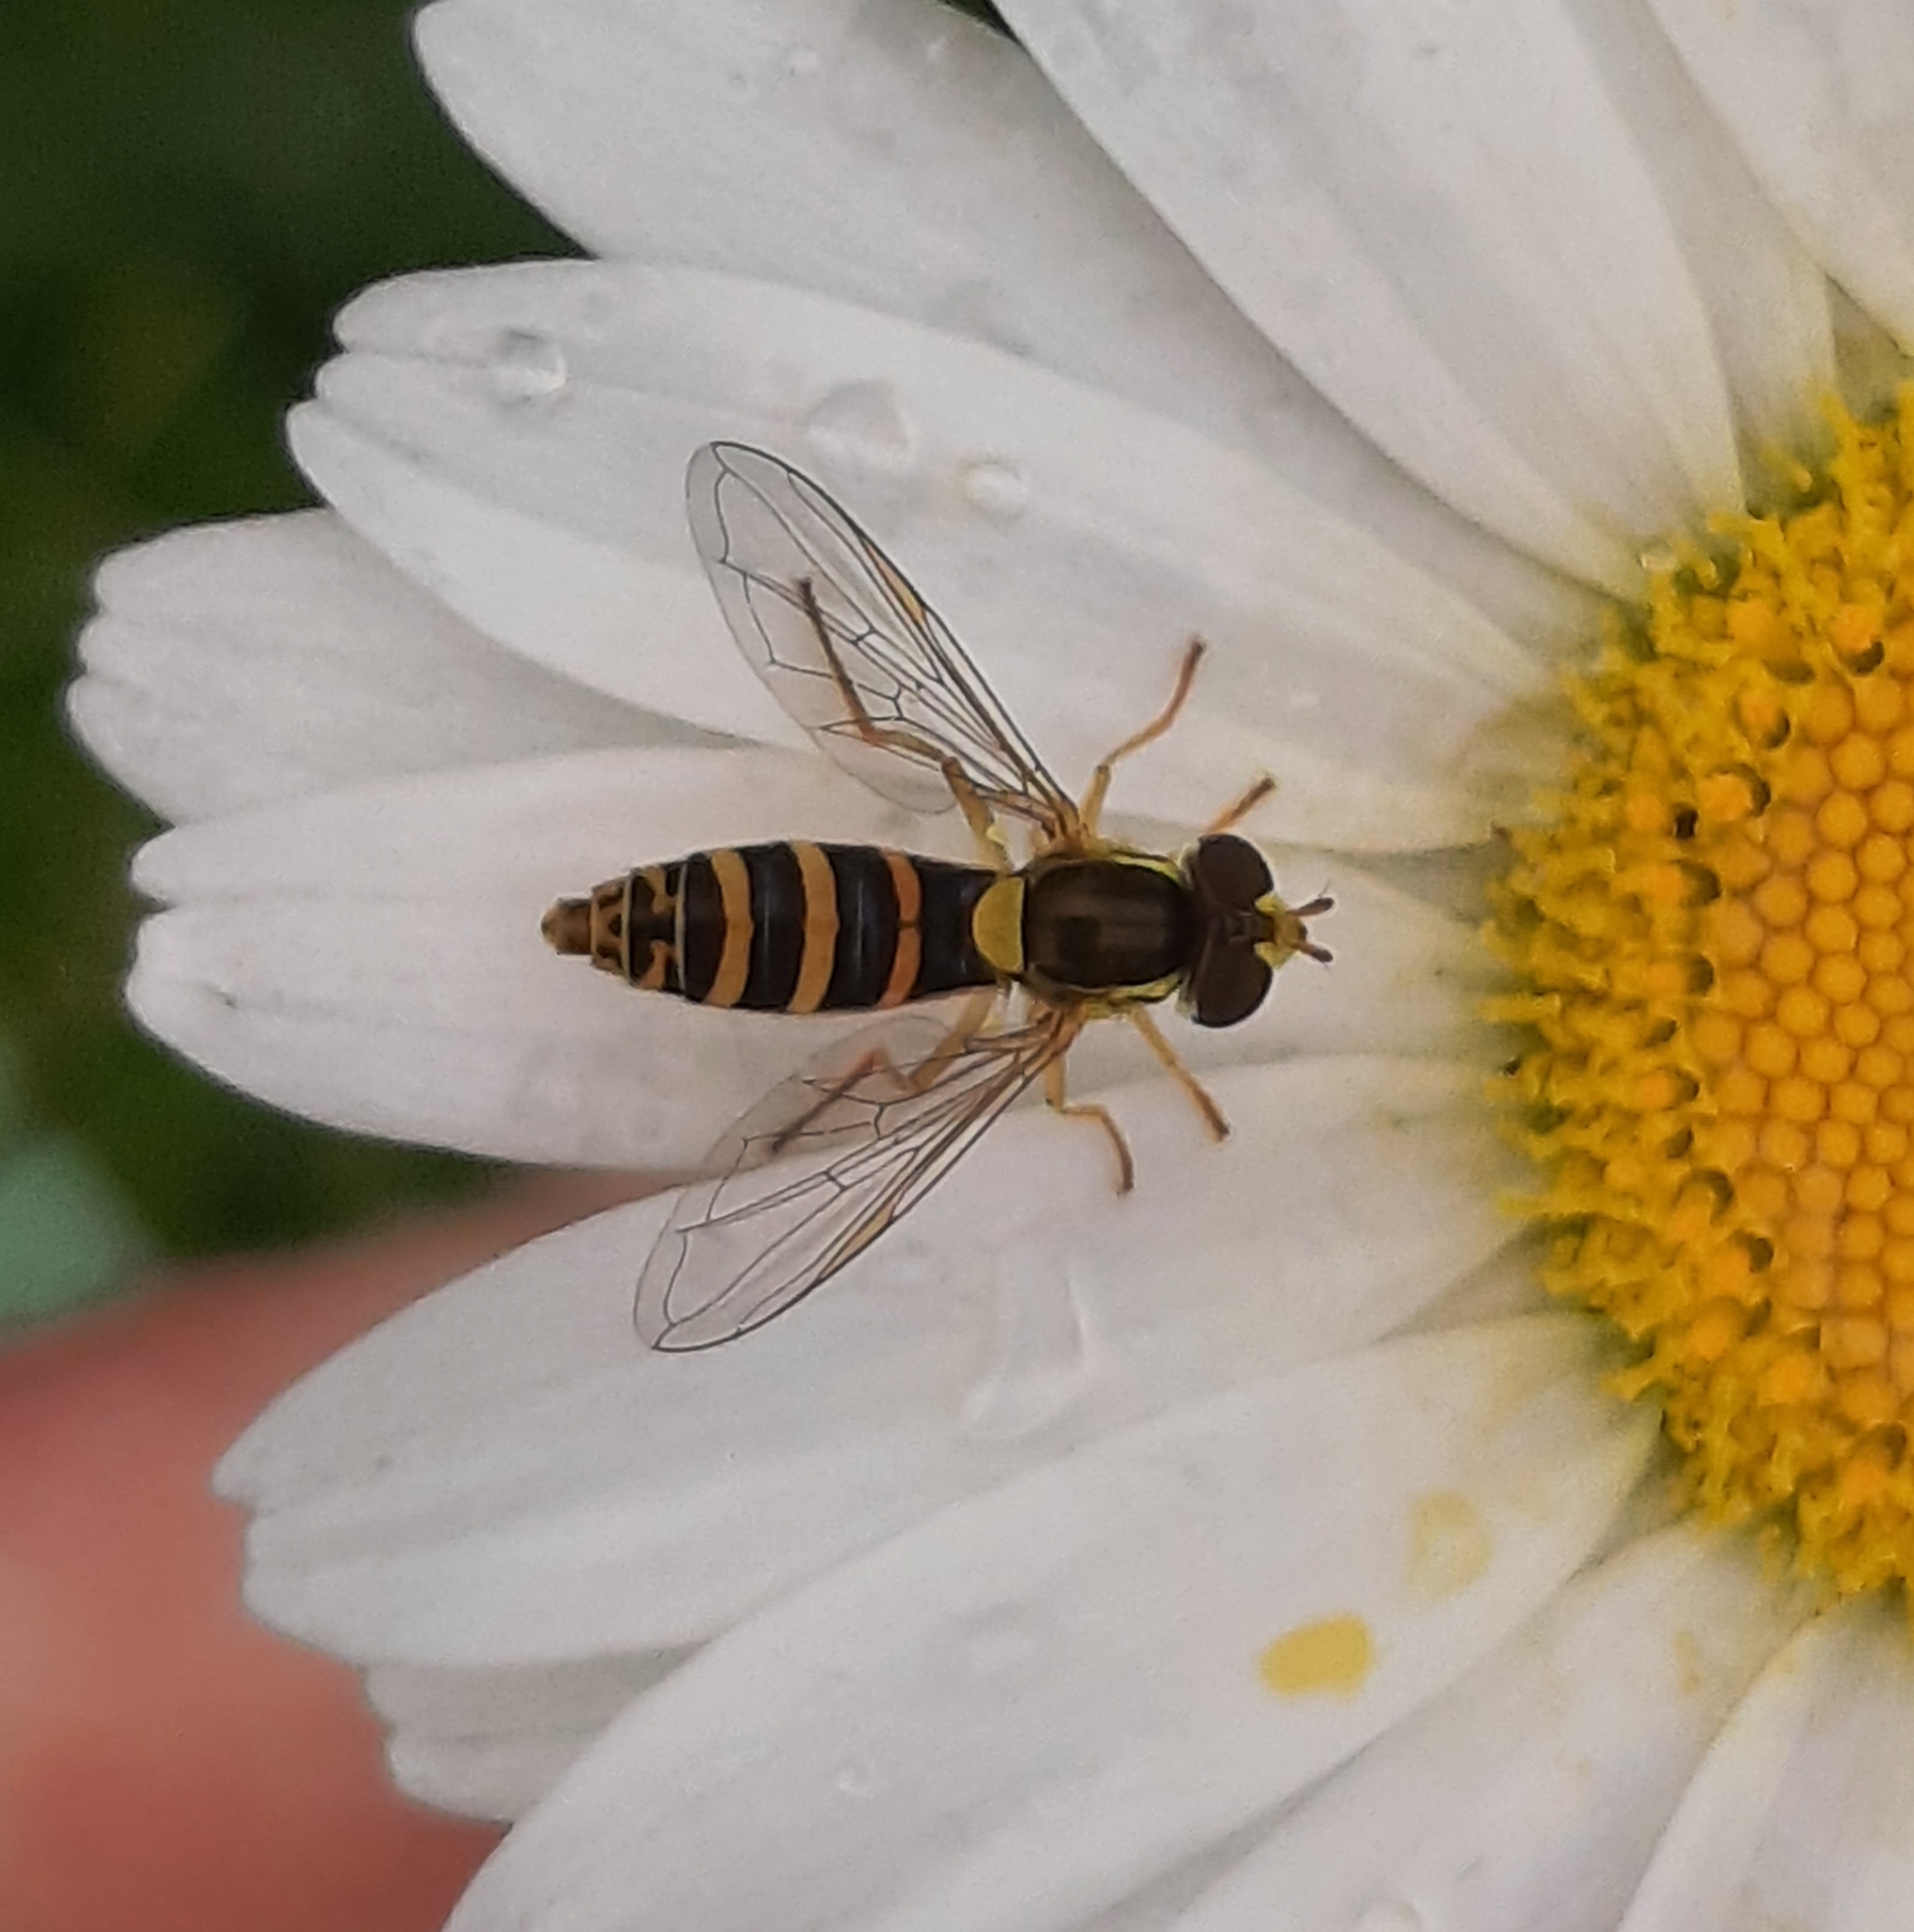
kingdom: Animalia
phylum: Arthropoda
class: Insecta
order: Diptera
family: Syrphidae
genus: Sphaerophoria
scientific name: Sphaerophoria
